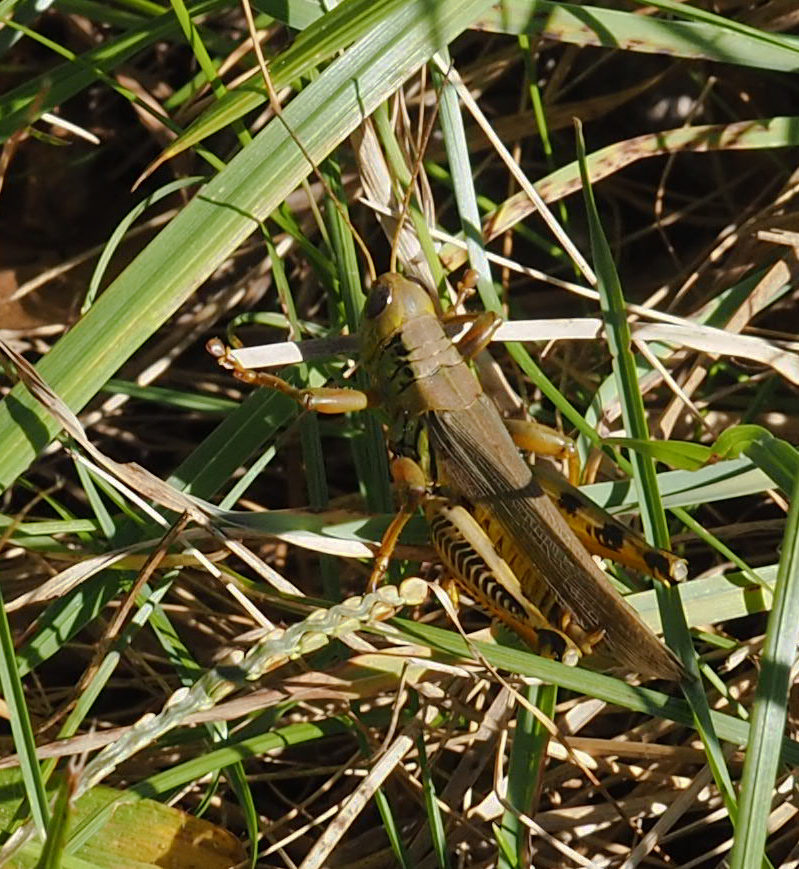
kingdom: Animalia
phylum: Arthropoda
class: Insecta
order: Orthoptera
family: Acrididae
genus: Melanoplus
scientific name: Melanoplus differentialis
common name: Differential grasshopper
